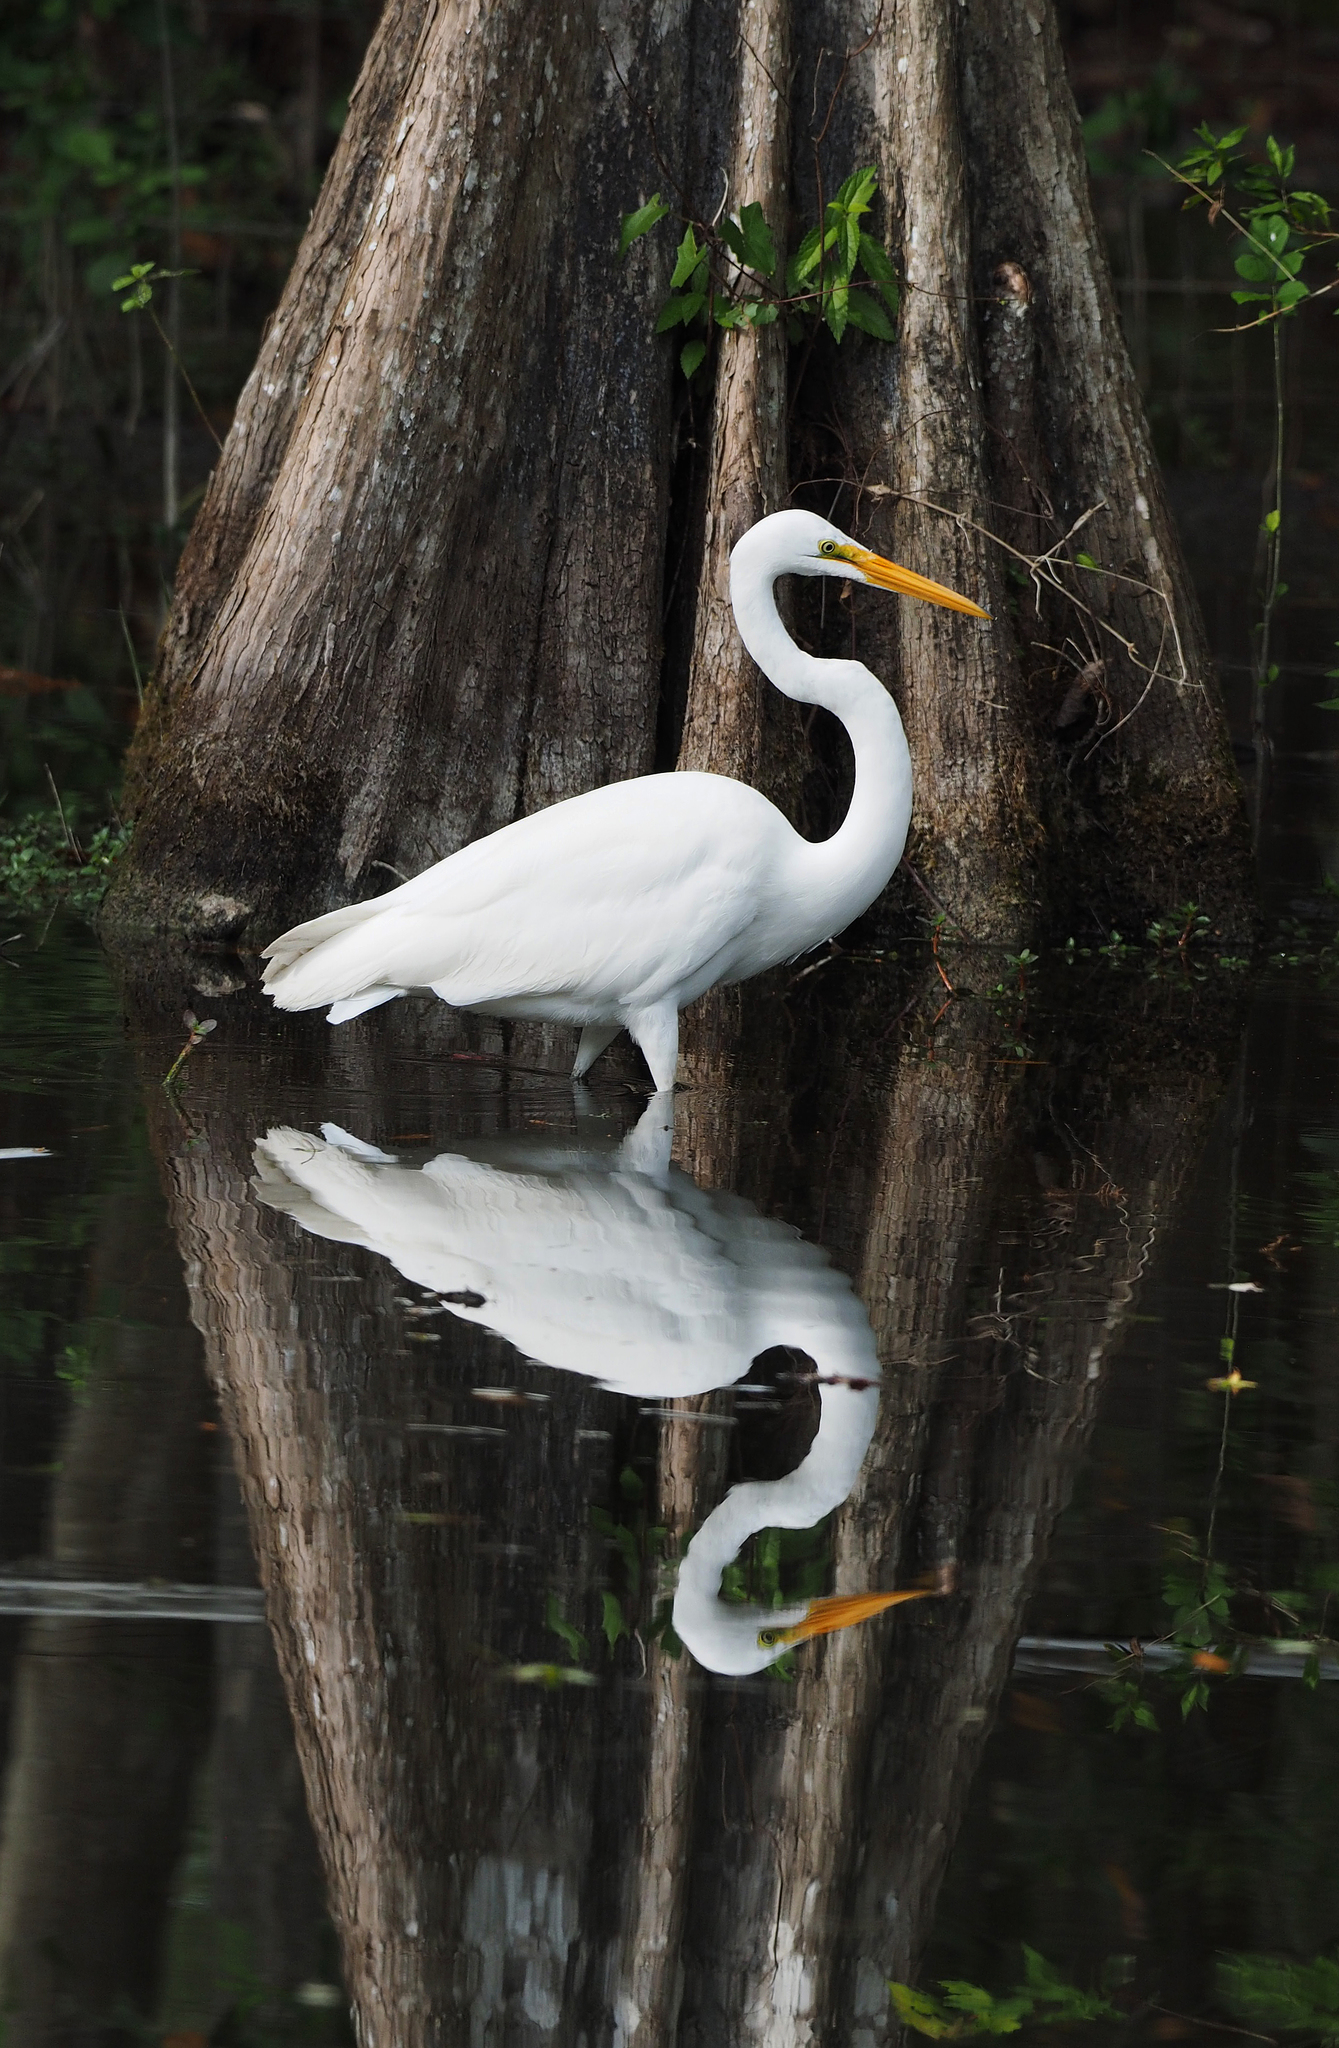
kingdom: Animalia
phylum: Chordata
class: Aves
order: Pelecaniformes
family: Ardeidae
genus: Ardea
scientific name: Ardea alba
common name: Great egret
